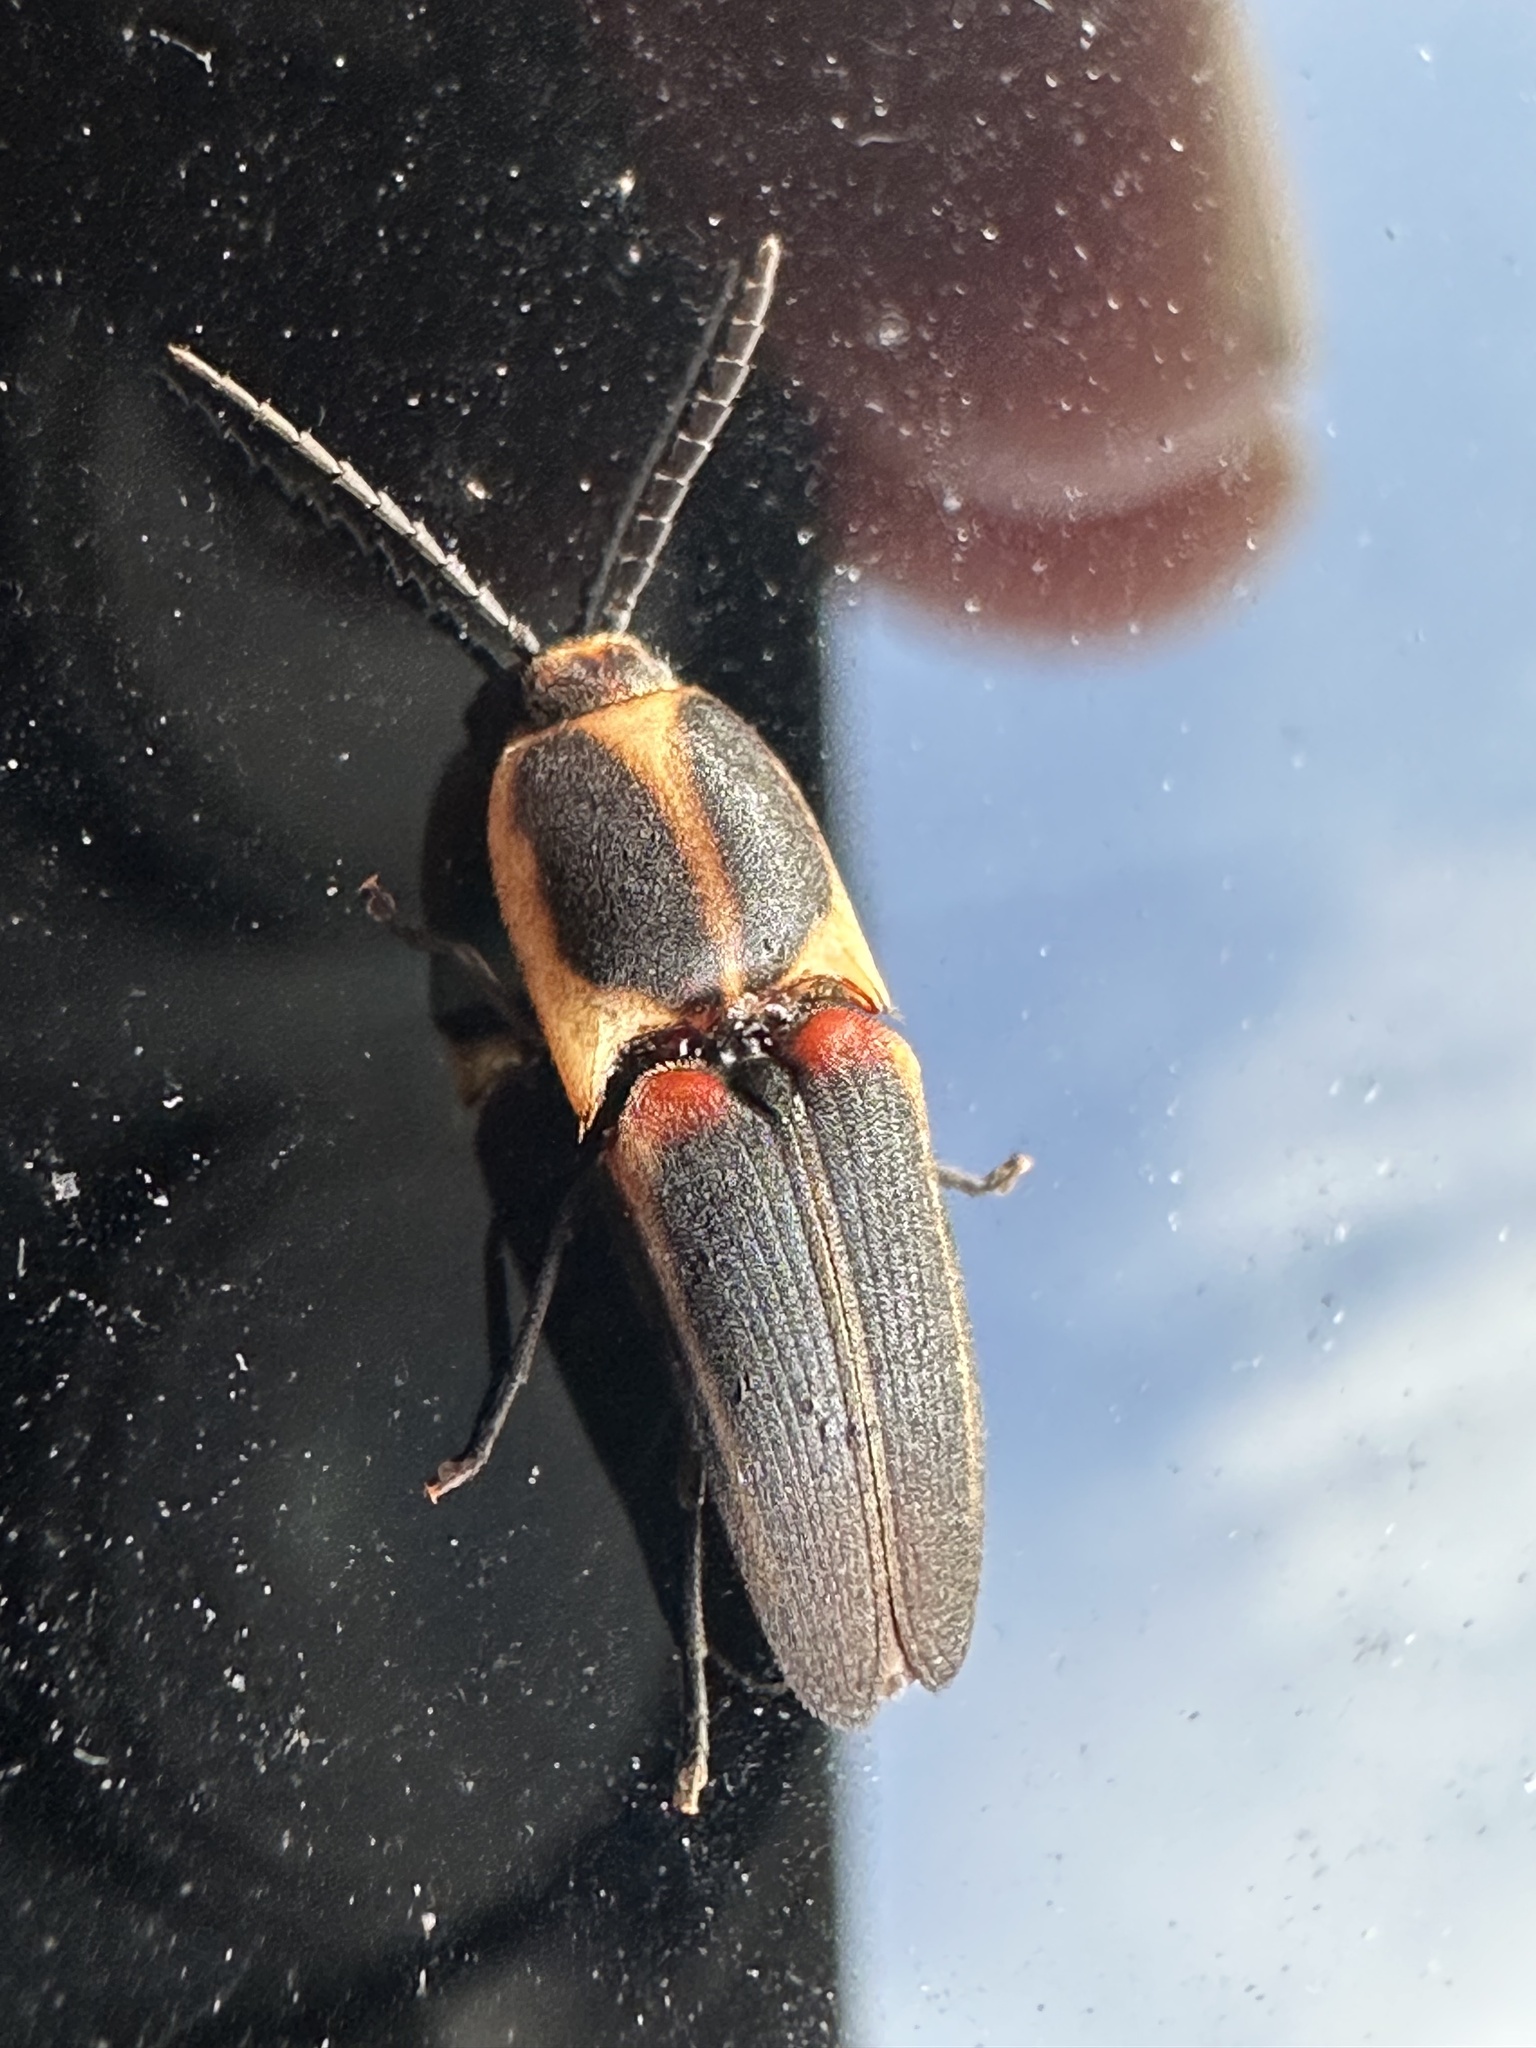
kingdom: Animalia
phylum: Arthropoda
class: Insecta
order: Coleoptera
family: Elateridae
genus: Anchastus
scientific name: Anchastus
